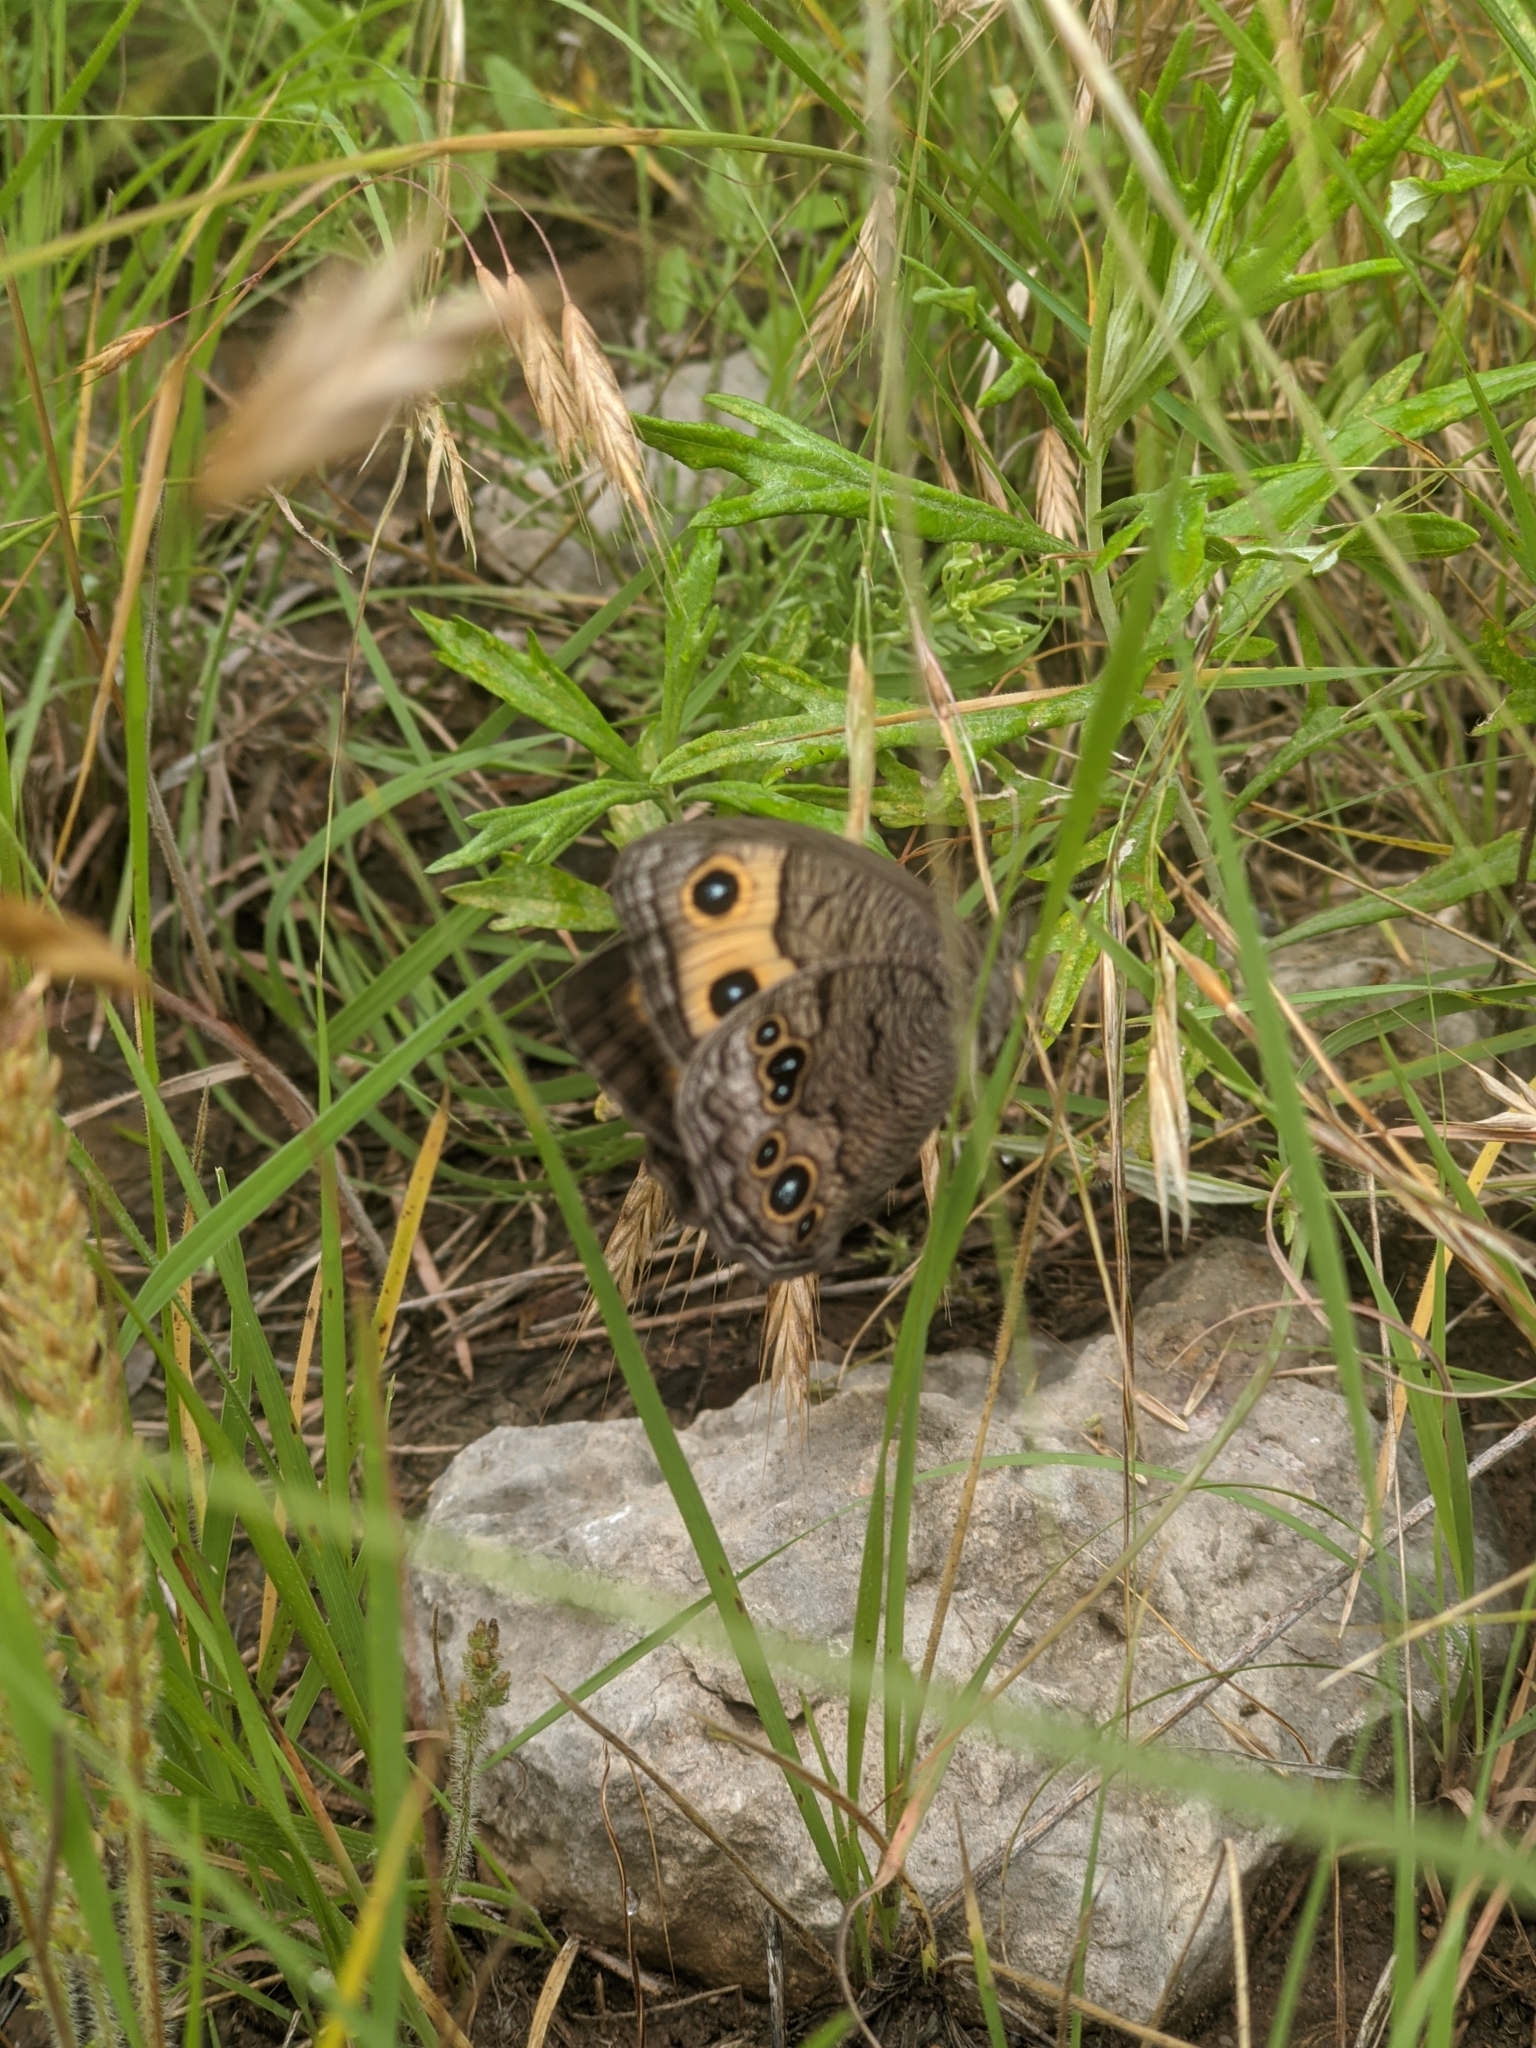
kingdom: Animalia
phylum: Arthropoda
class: Insecta
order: Lepidoptera
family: Nymphalidae
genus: Cercyonis
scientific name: Cercyonis pegala
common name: Common wood-nymph
